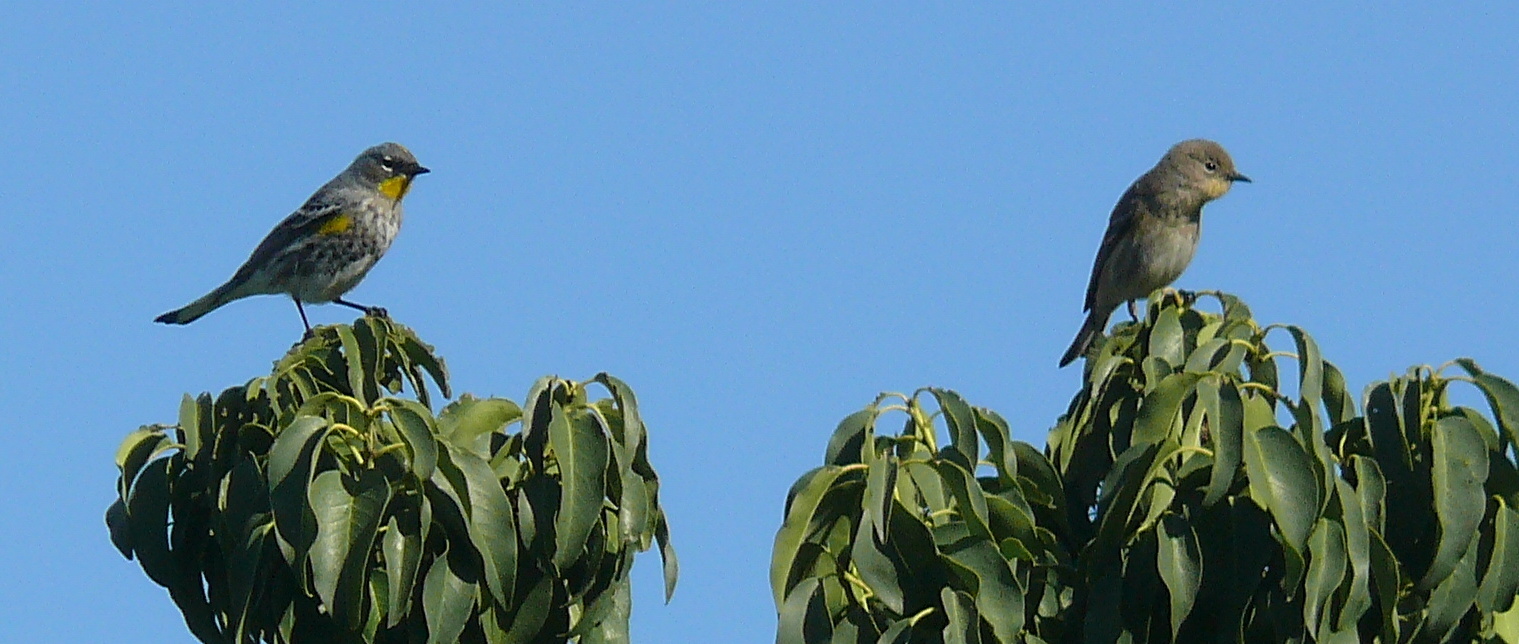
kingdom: Animalia
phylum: Chordata
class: Aves
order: Passeriformes
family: Parulidae
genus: Setophaga
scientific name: Setophaga auduboni
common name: Audubon's warbler
